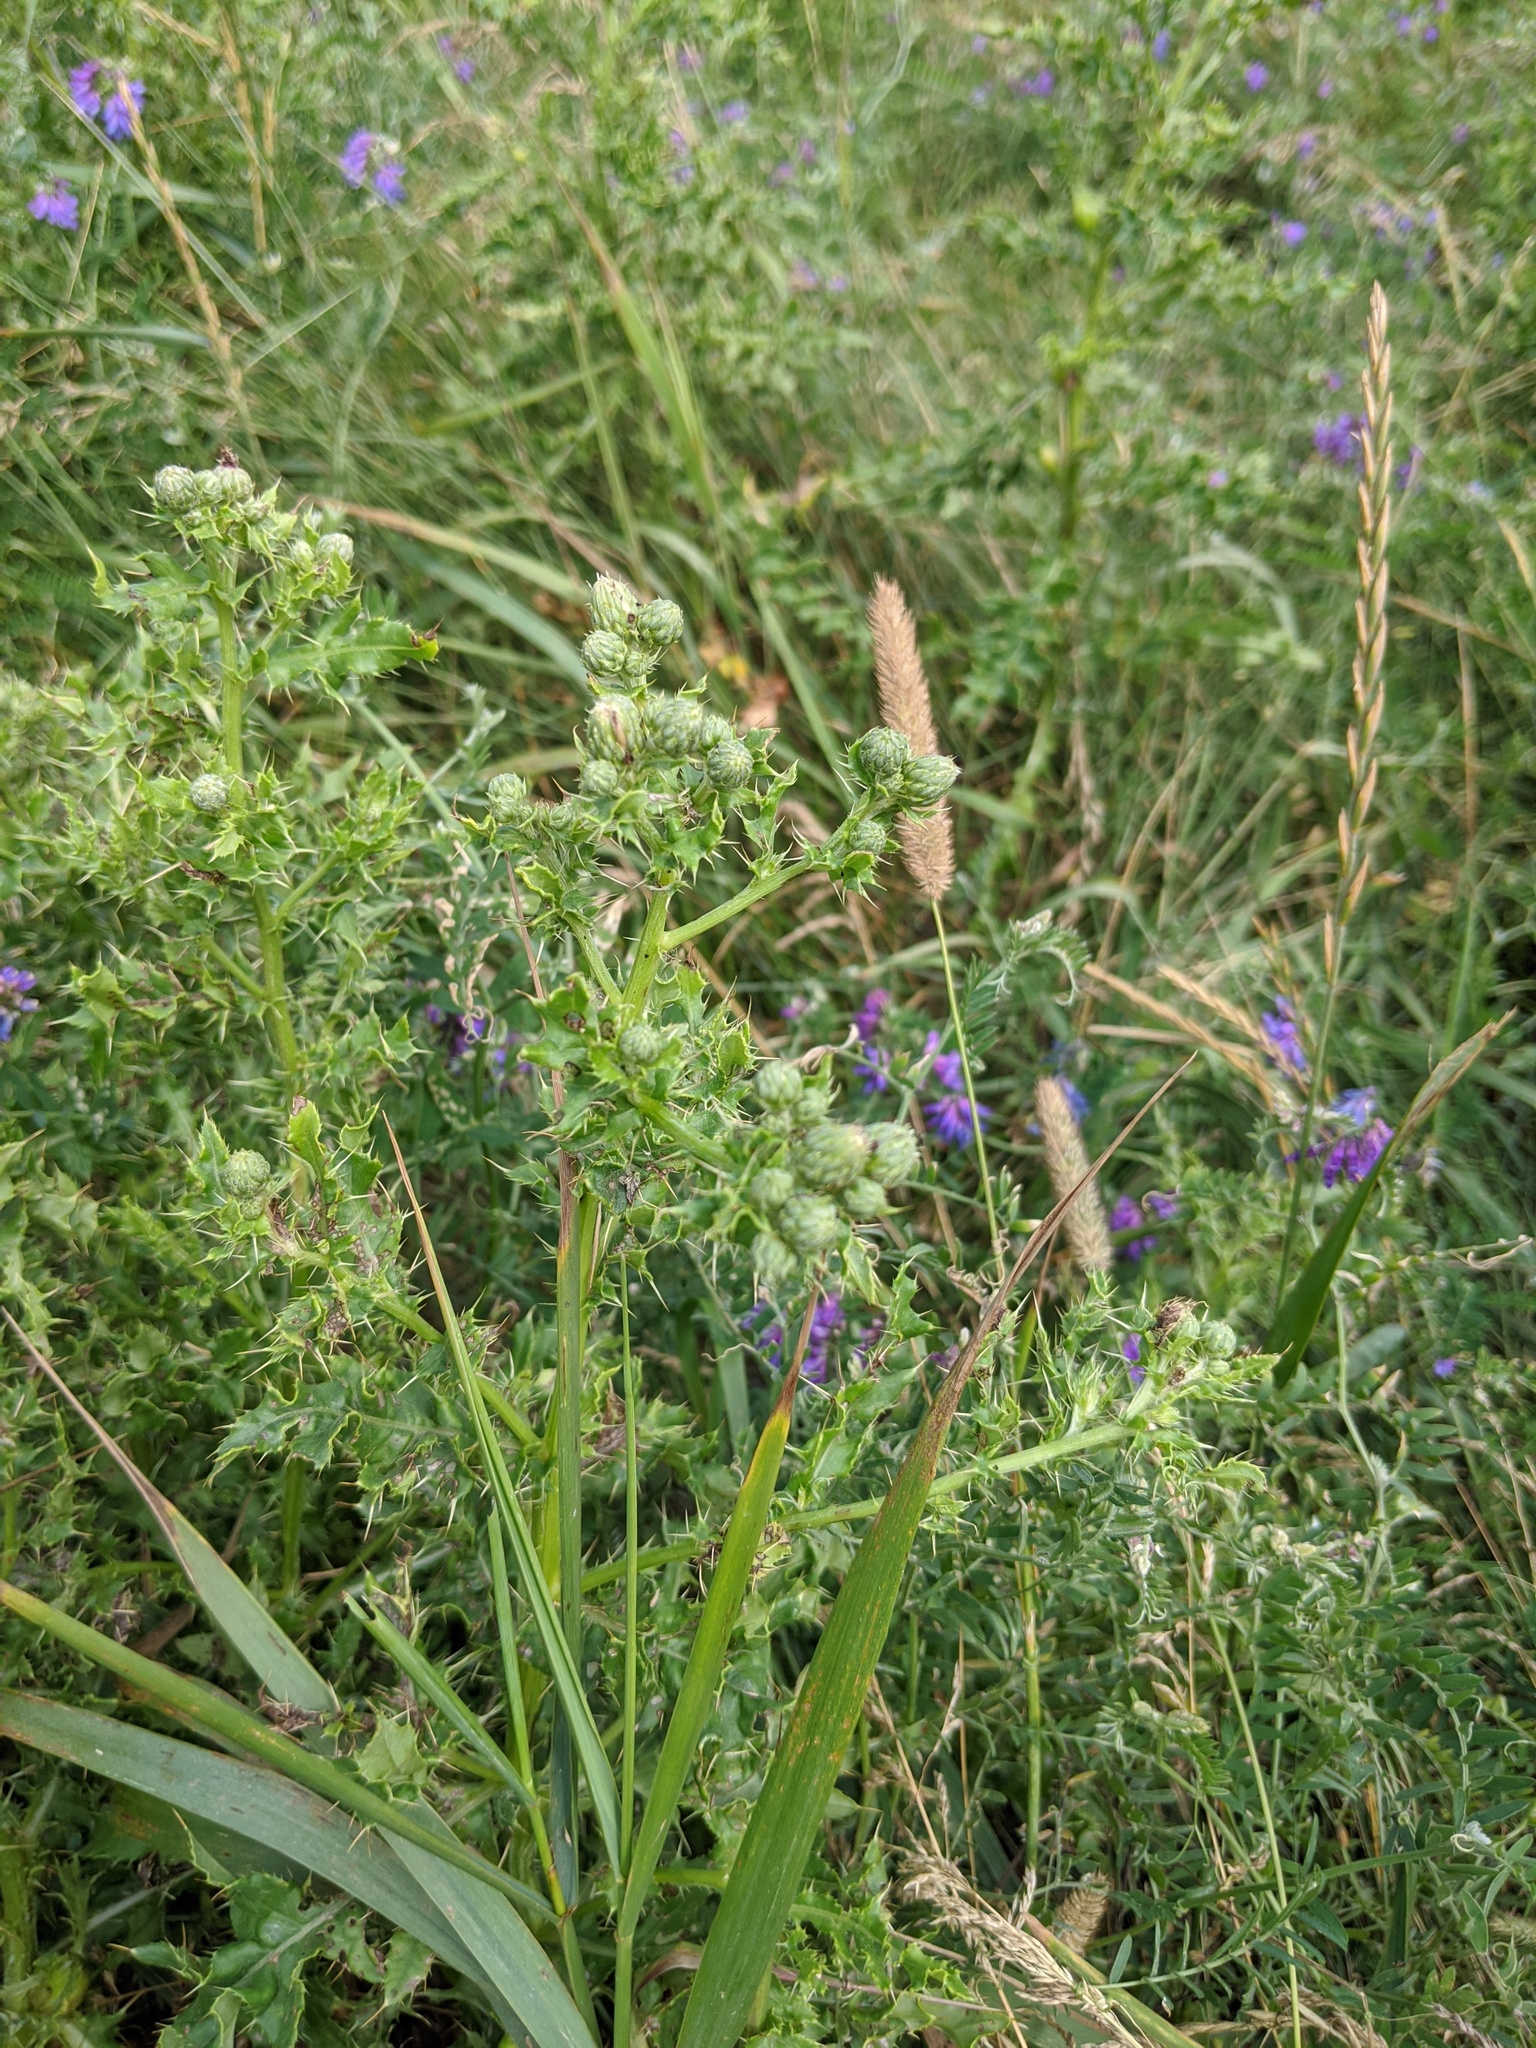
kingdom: Plantae
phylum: Tracheophyta
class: Magnoliopsida
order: Asterales
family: Asteraceae
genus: Cirsium
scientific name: Cirsium arvense
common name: Creeping thistle
